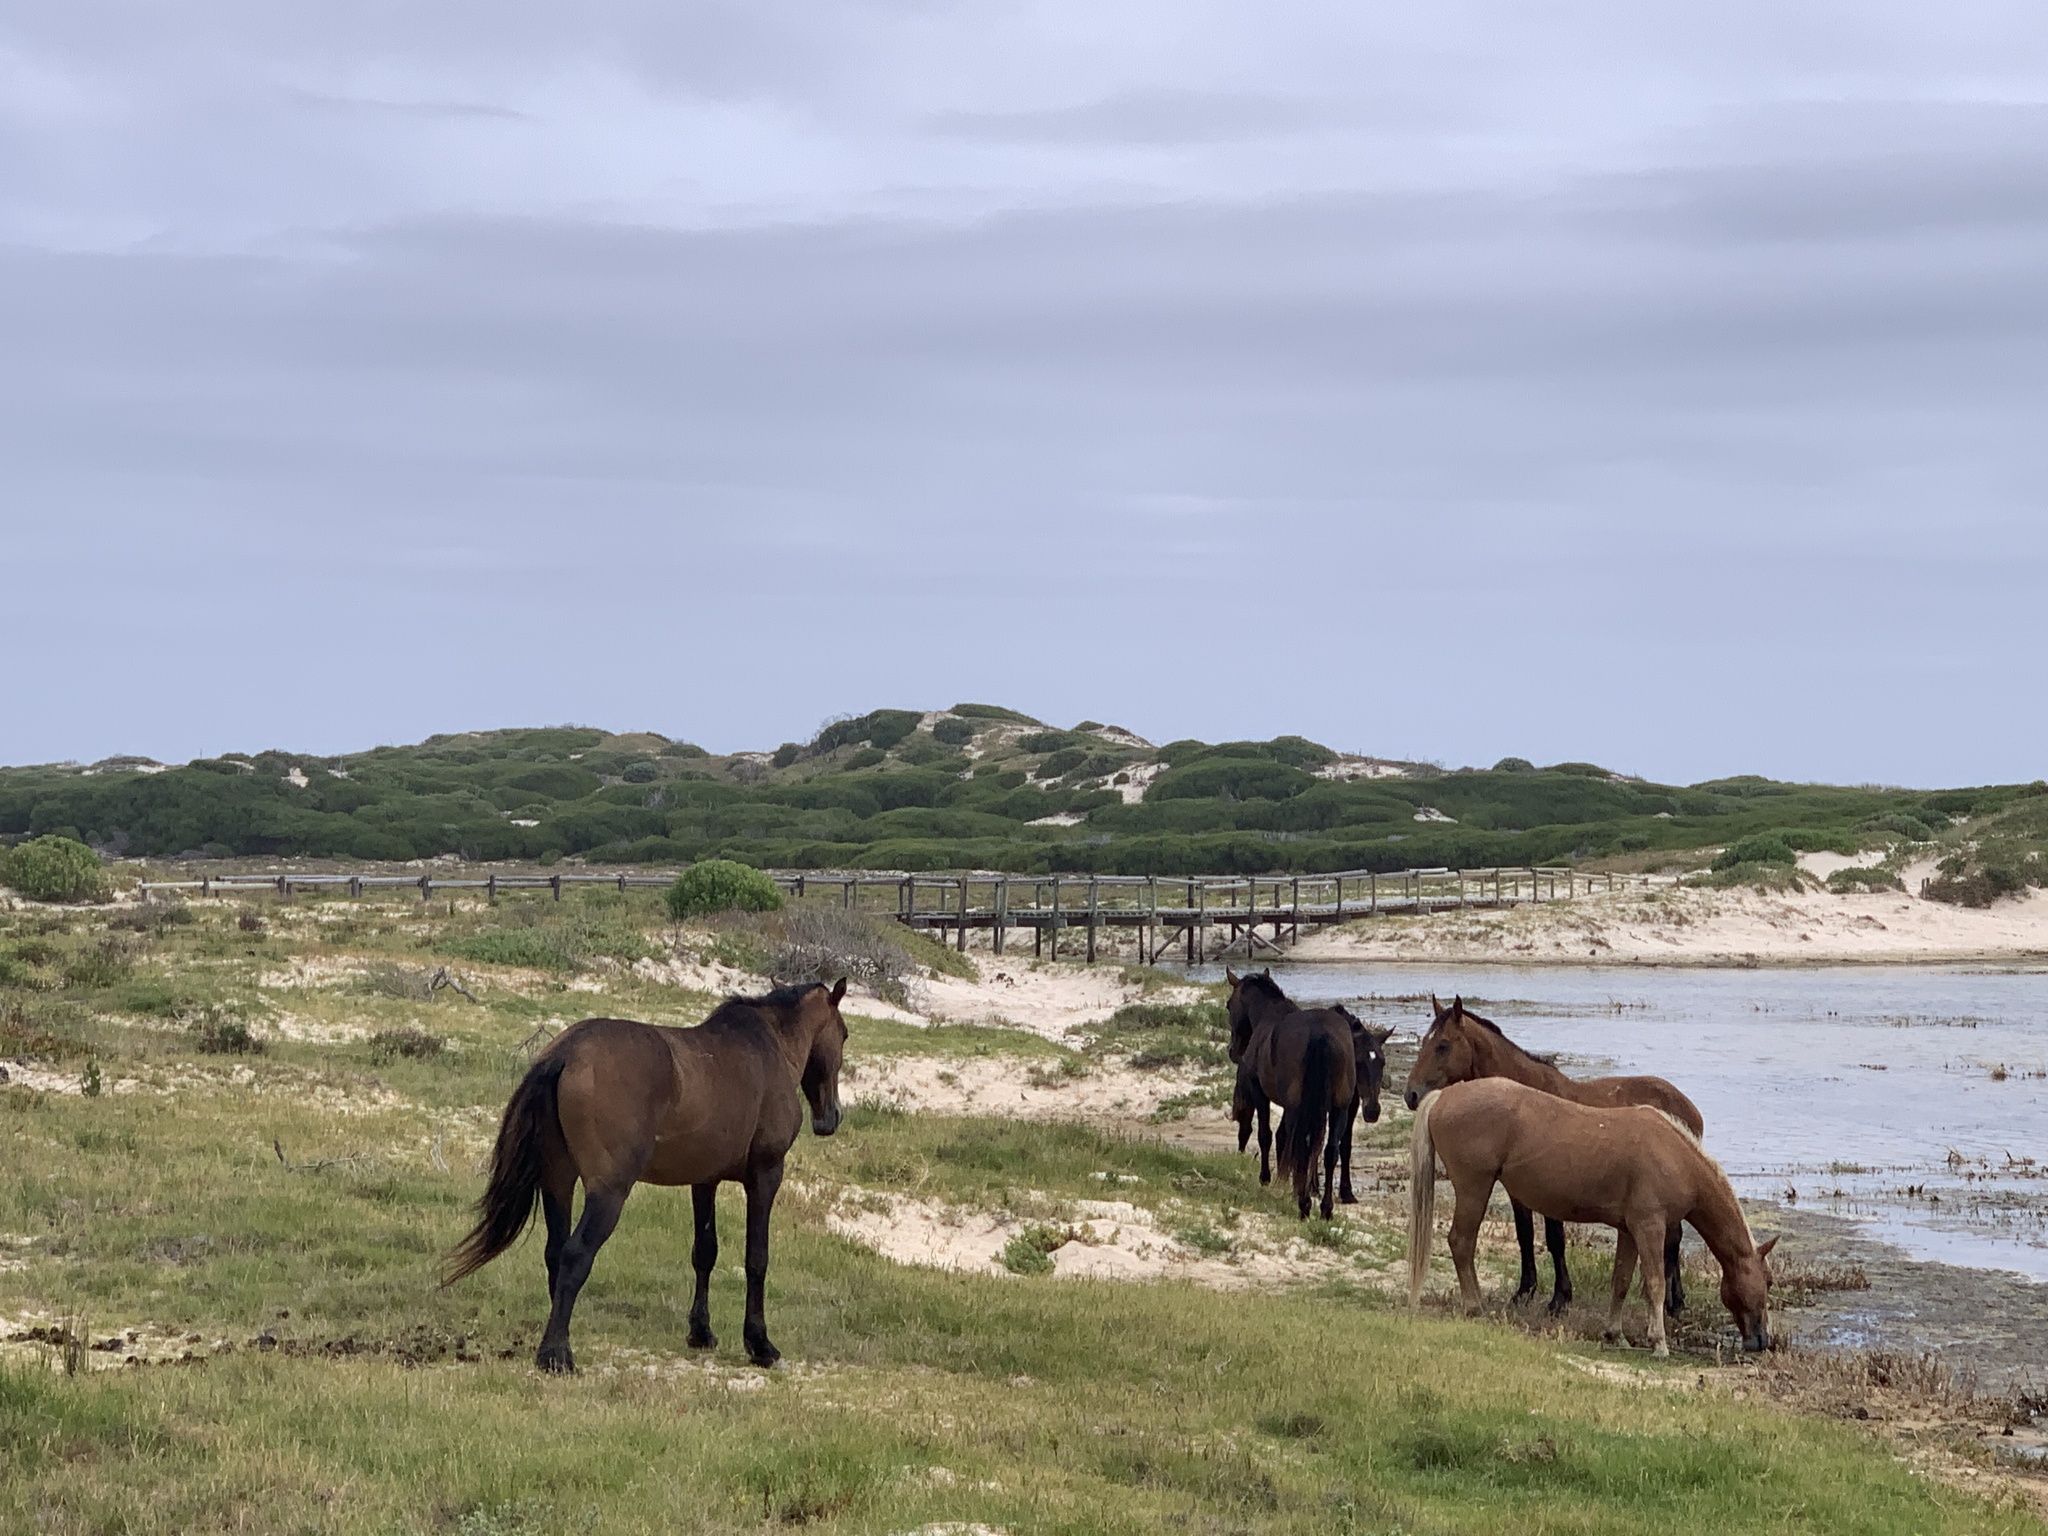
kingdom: Animalia
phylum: Chordata
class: Mammalia
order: Perissodactyla
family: Equidae
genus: Equus
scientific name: Equus caballus
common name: Horse
